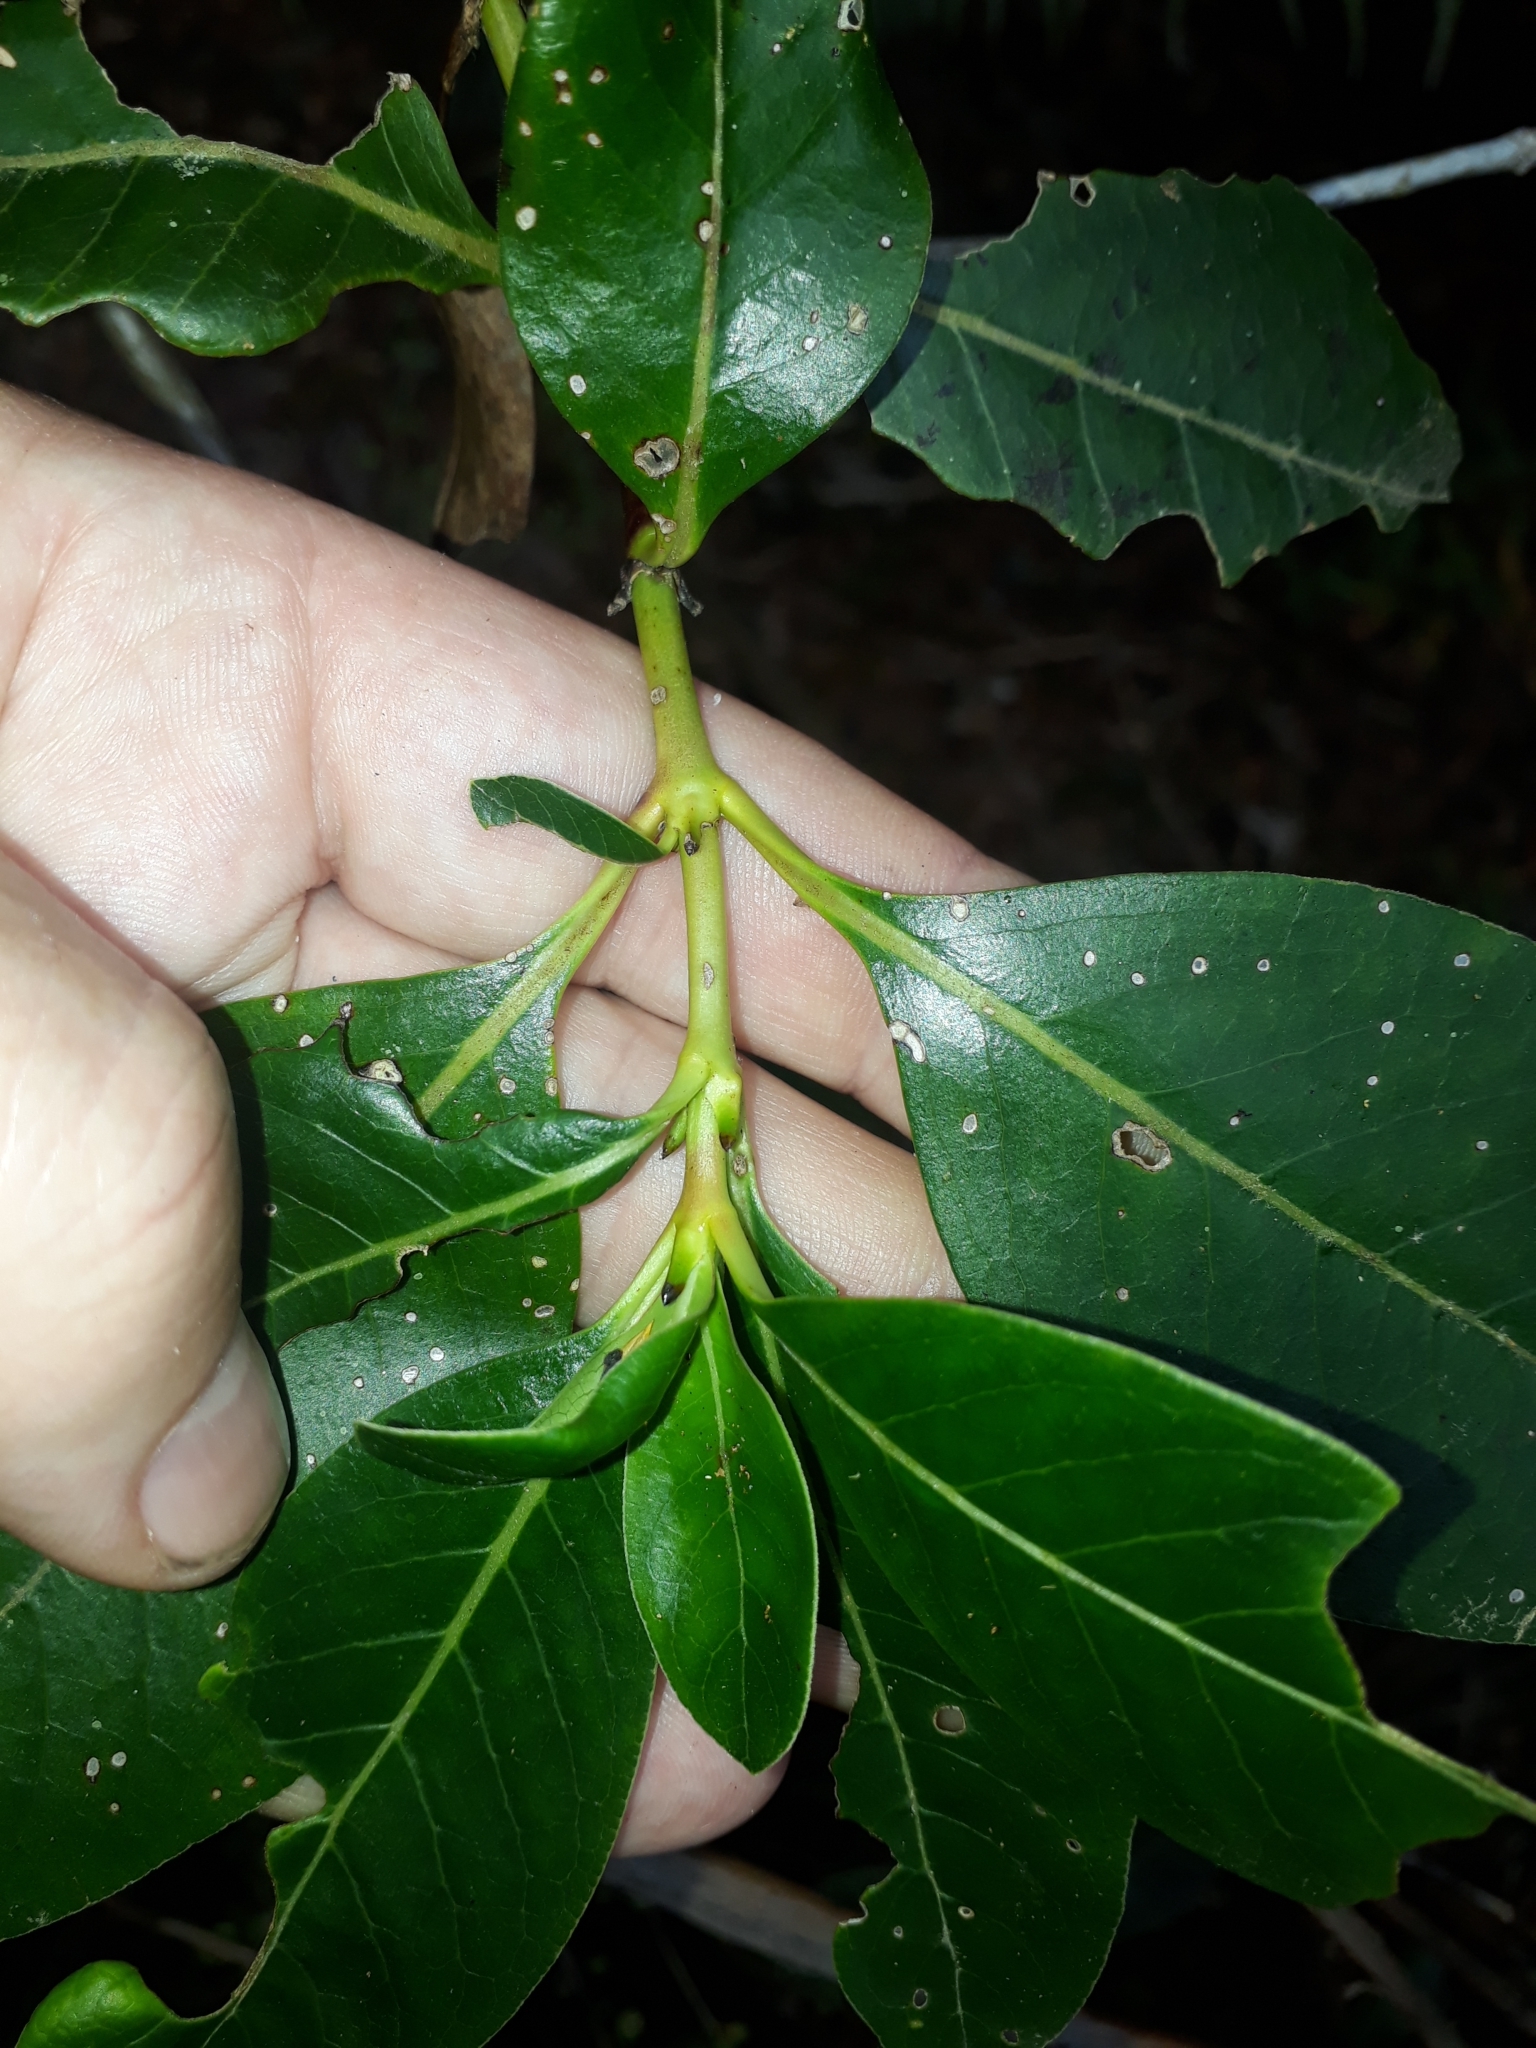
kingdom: Plantae
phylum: Tracheophyta
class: Magnoliopsida
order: Gentianales
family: Rubiaceae
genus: Coprosma
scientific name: Coprosma robusta
